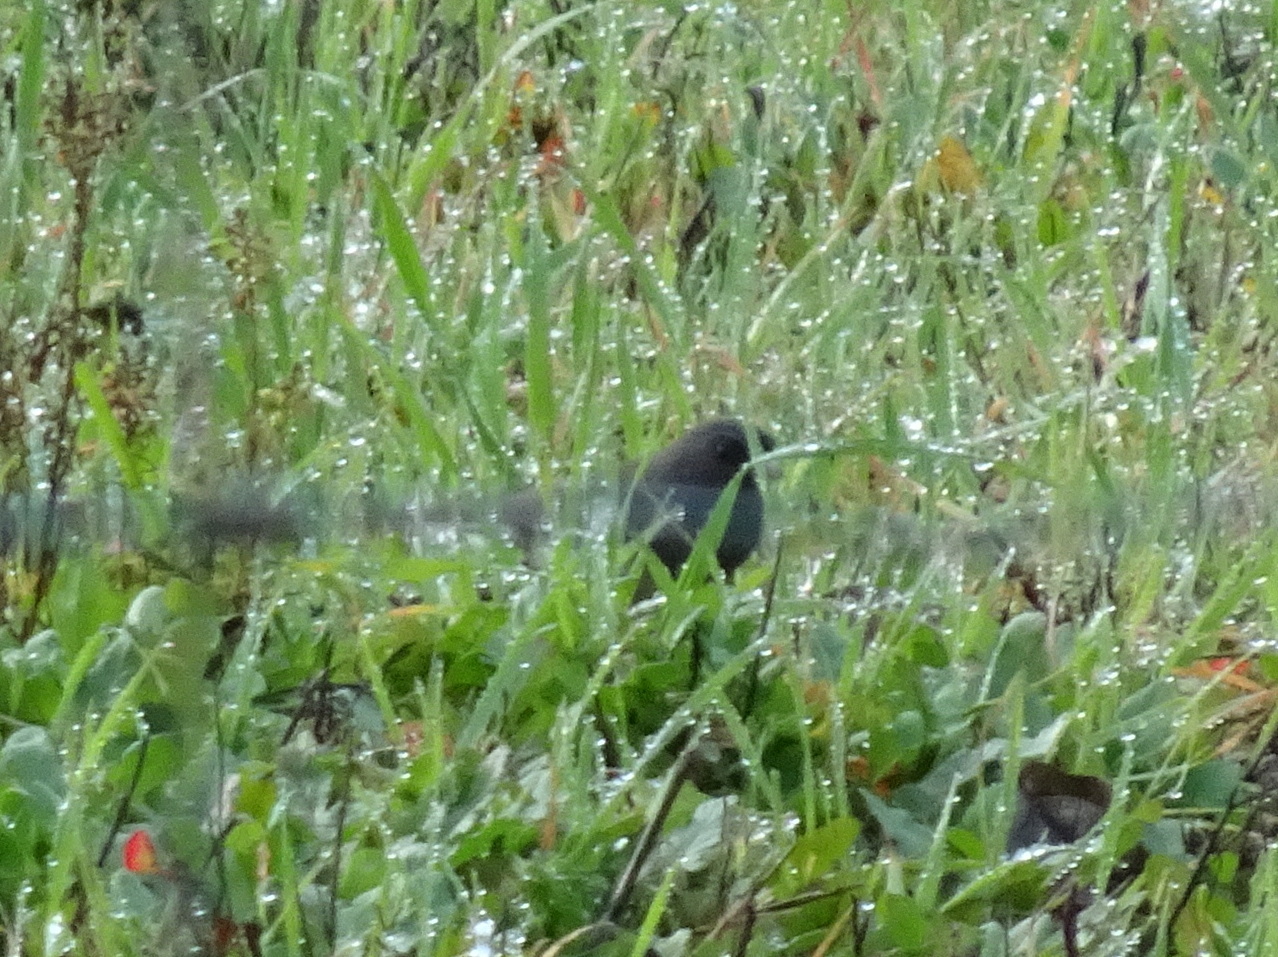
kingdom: Animalia
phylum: Chordata
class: Aves
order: Passeriformes
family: Passerellidae
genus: Junco
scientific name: Junco hyemalis
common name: Dark-eyed junco
